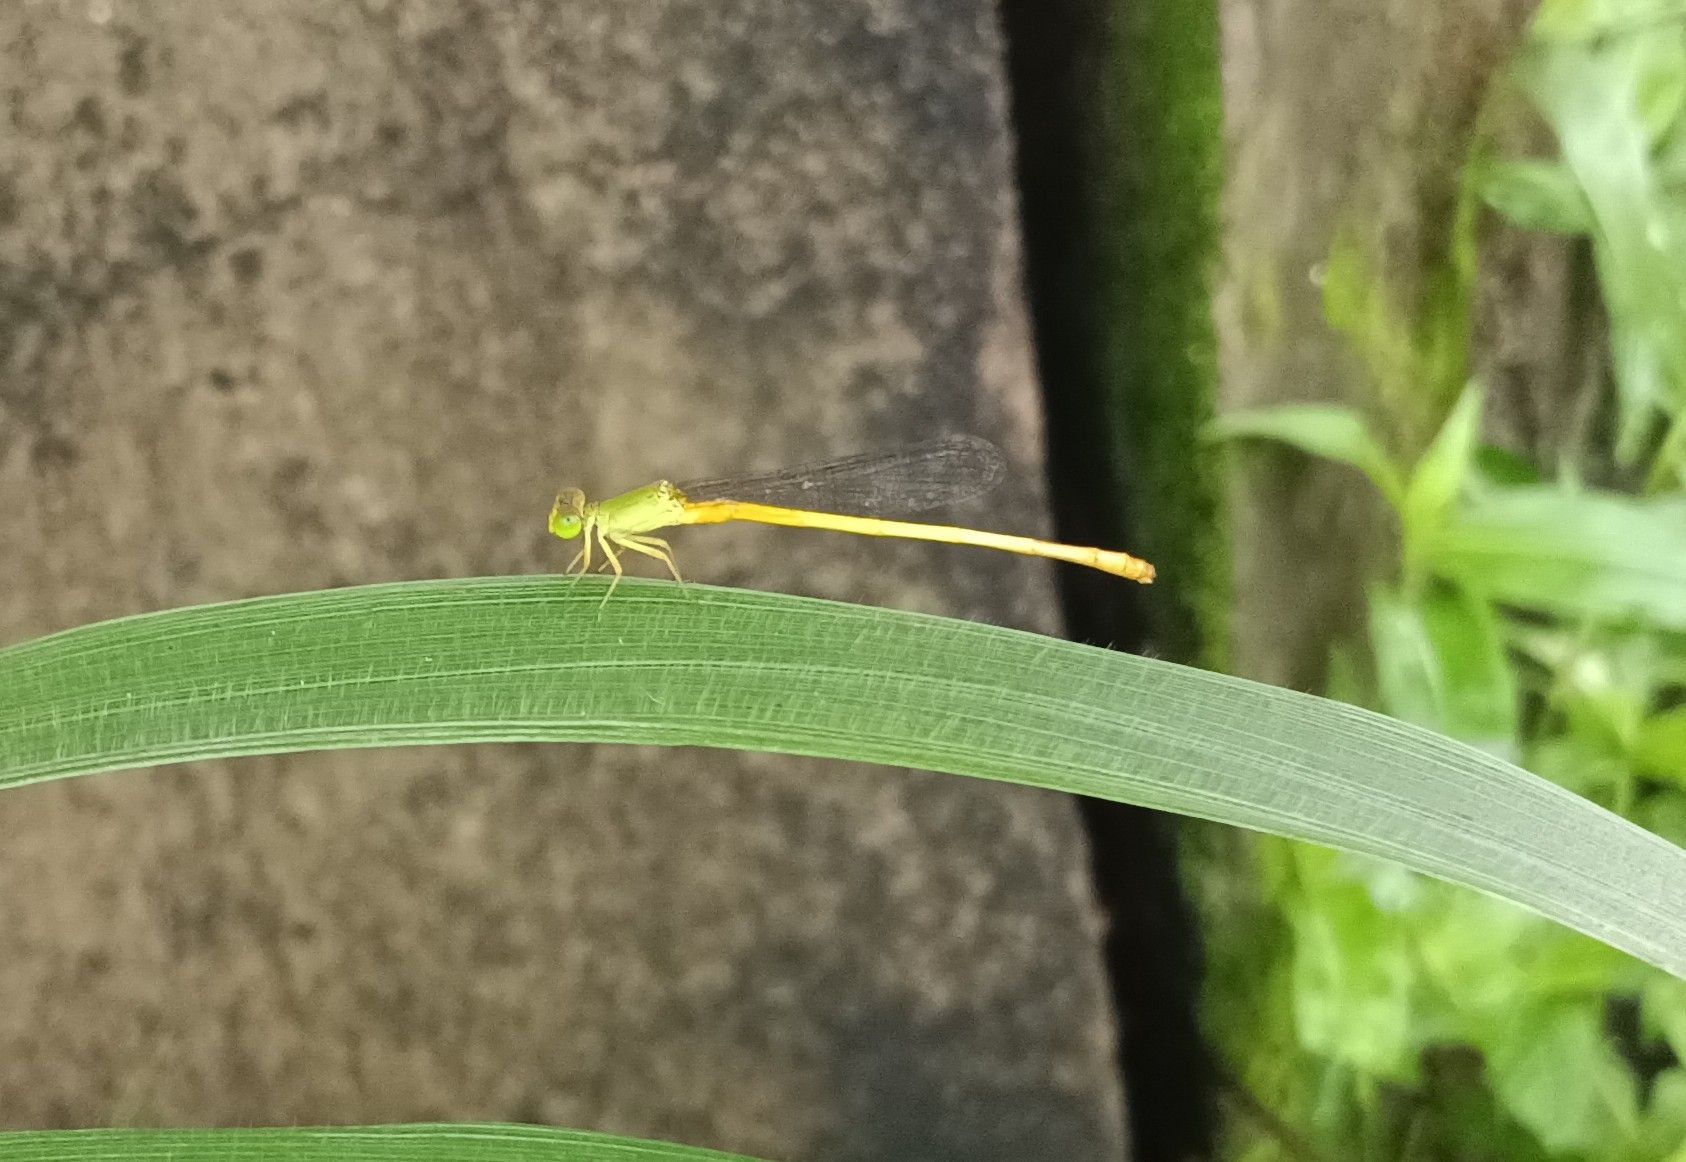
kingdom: Animalia
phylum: Arthropoda
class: Insecta
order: Odonata
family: Coenagrionidae
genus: Ceriagrion
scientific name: Ceriagrion coromandelianum
